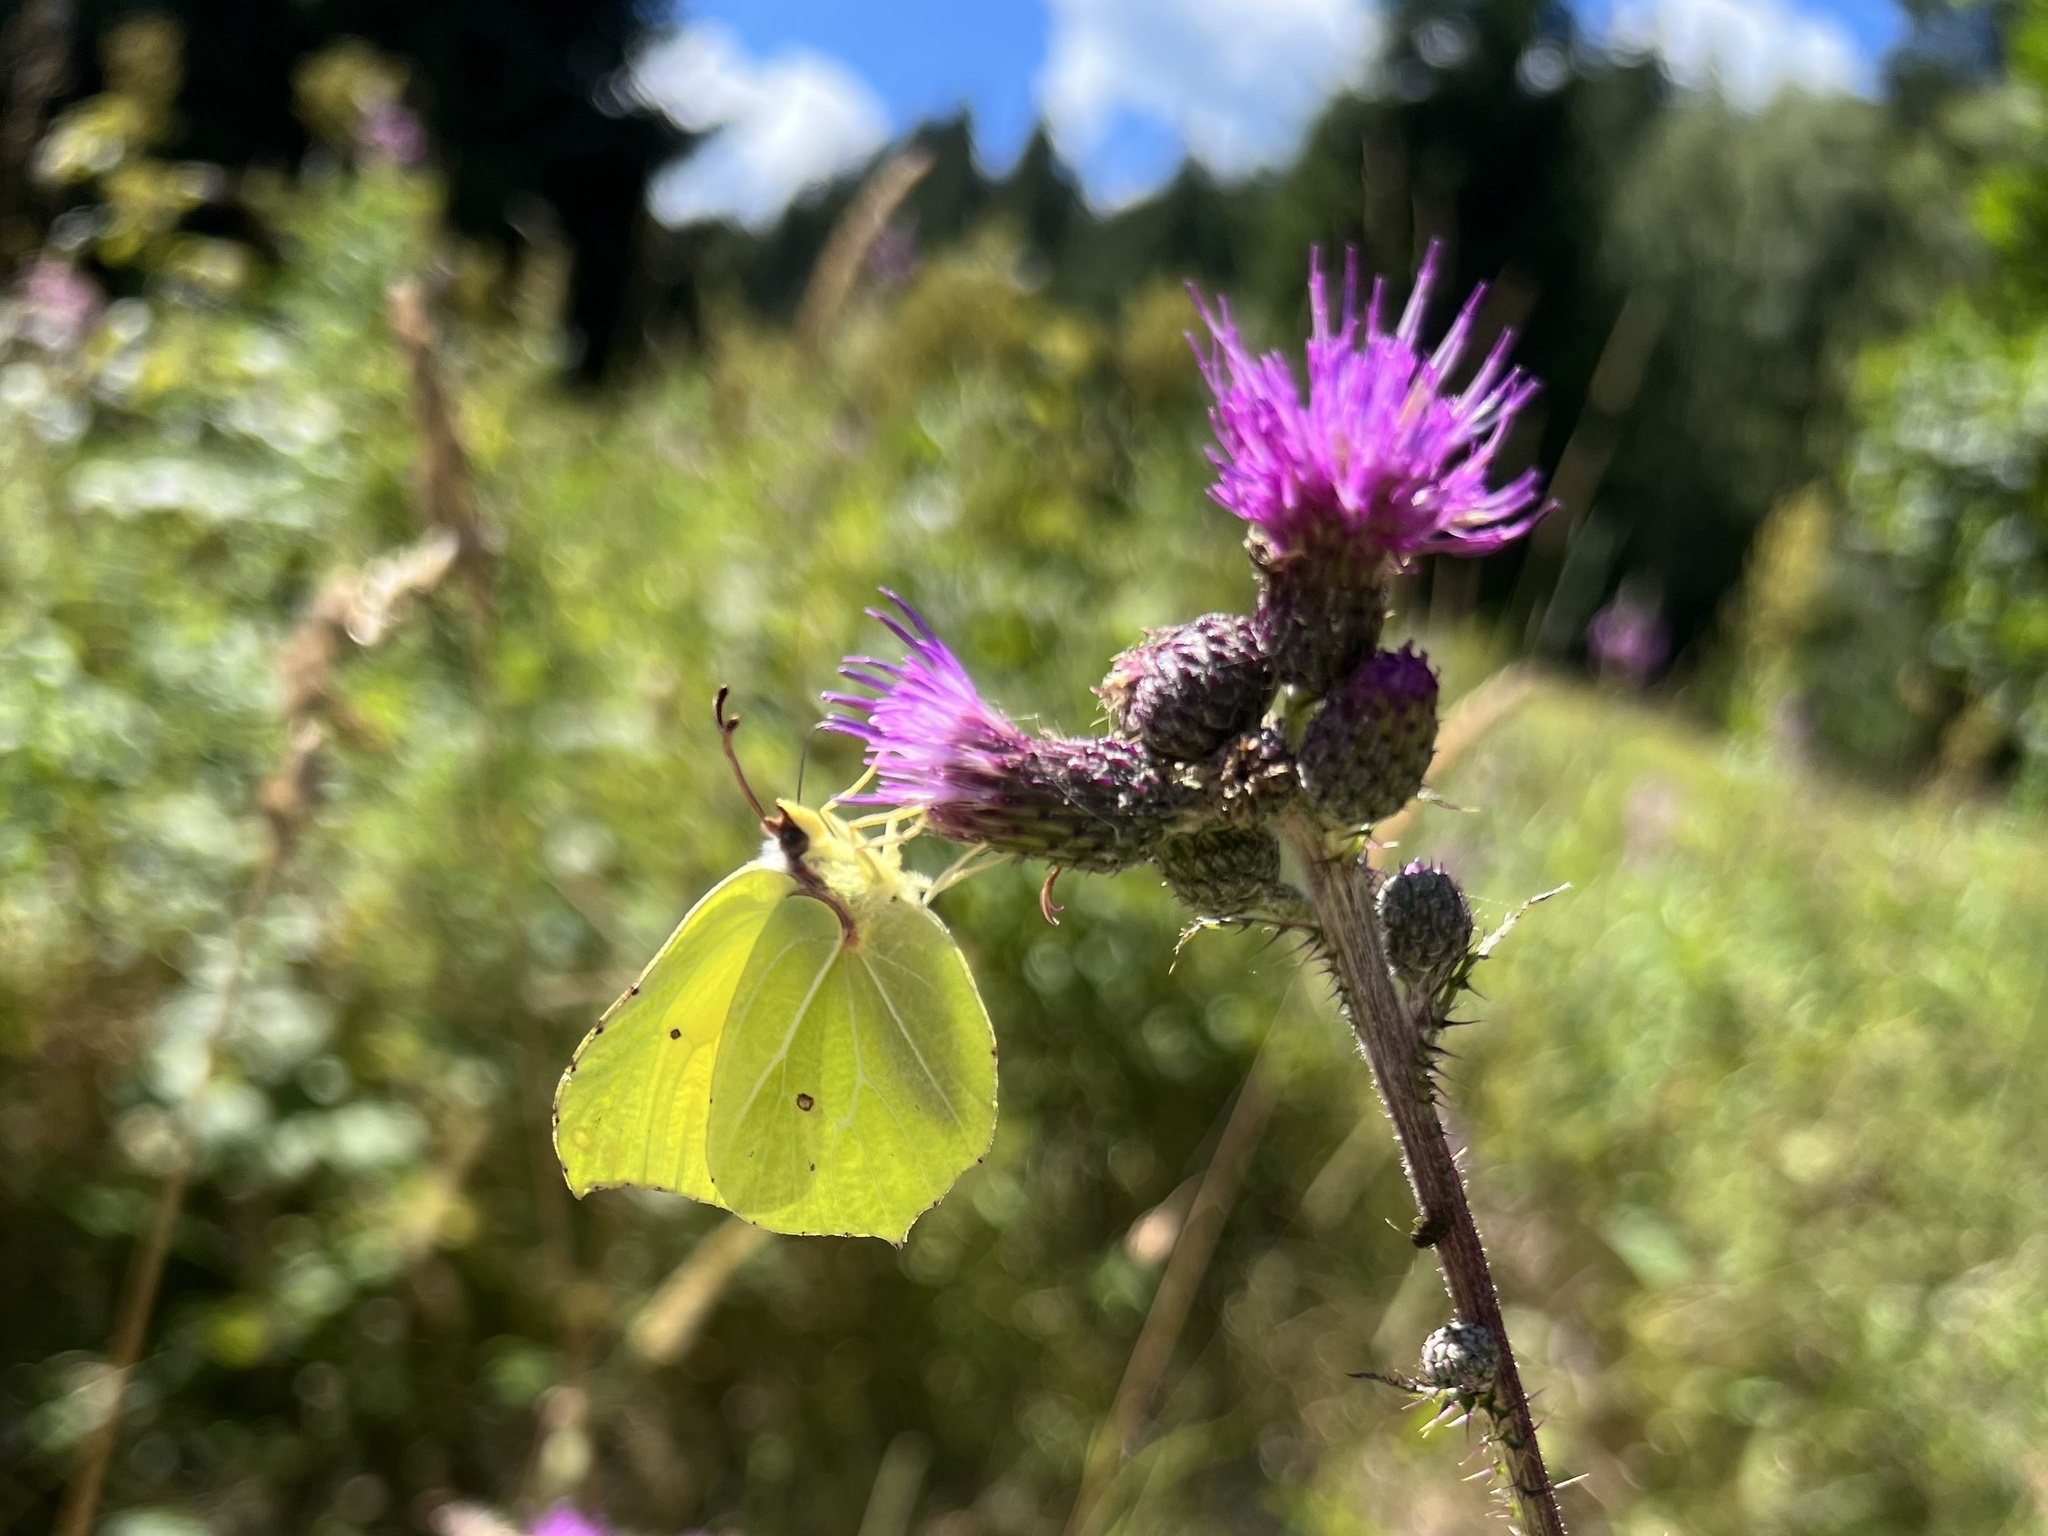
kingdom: Animalia
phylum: Arthropoda
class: Insecta
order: Lepidoptera
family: Pieridae
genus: Gonepteryx
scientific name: Gonepteryx rhamni
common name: Brimstone
